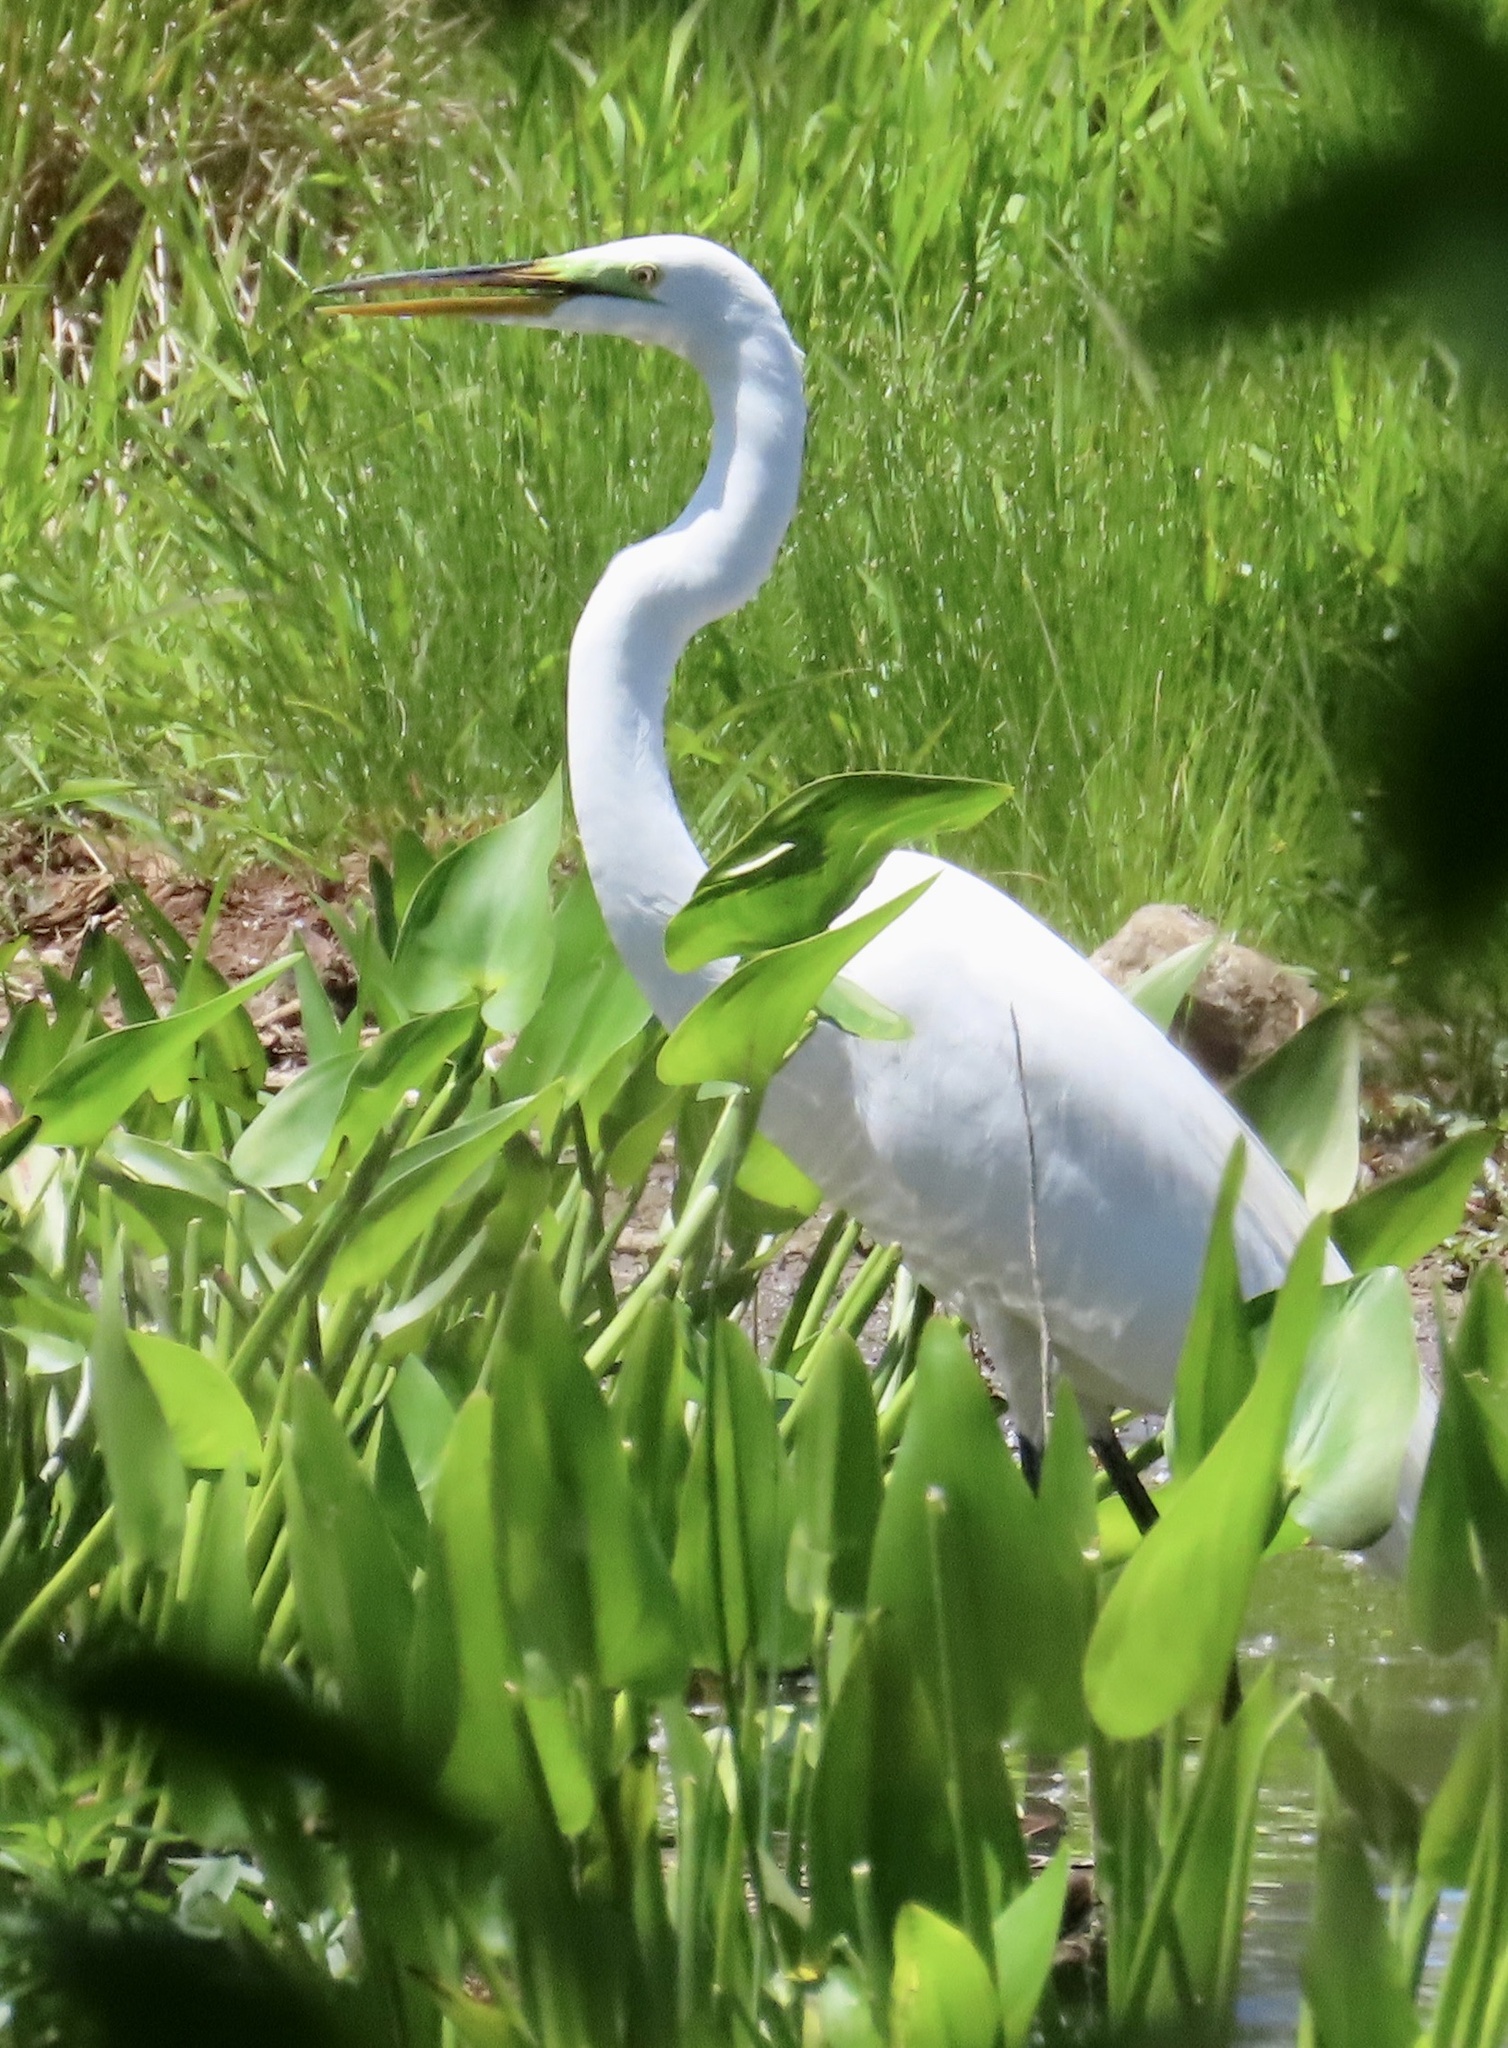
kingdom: Animalia
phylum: Chordata
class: Aves
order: Pelecaniformes
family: Ardeidae
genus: Ardea
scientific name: Ardea alba
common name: Great egret
